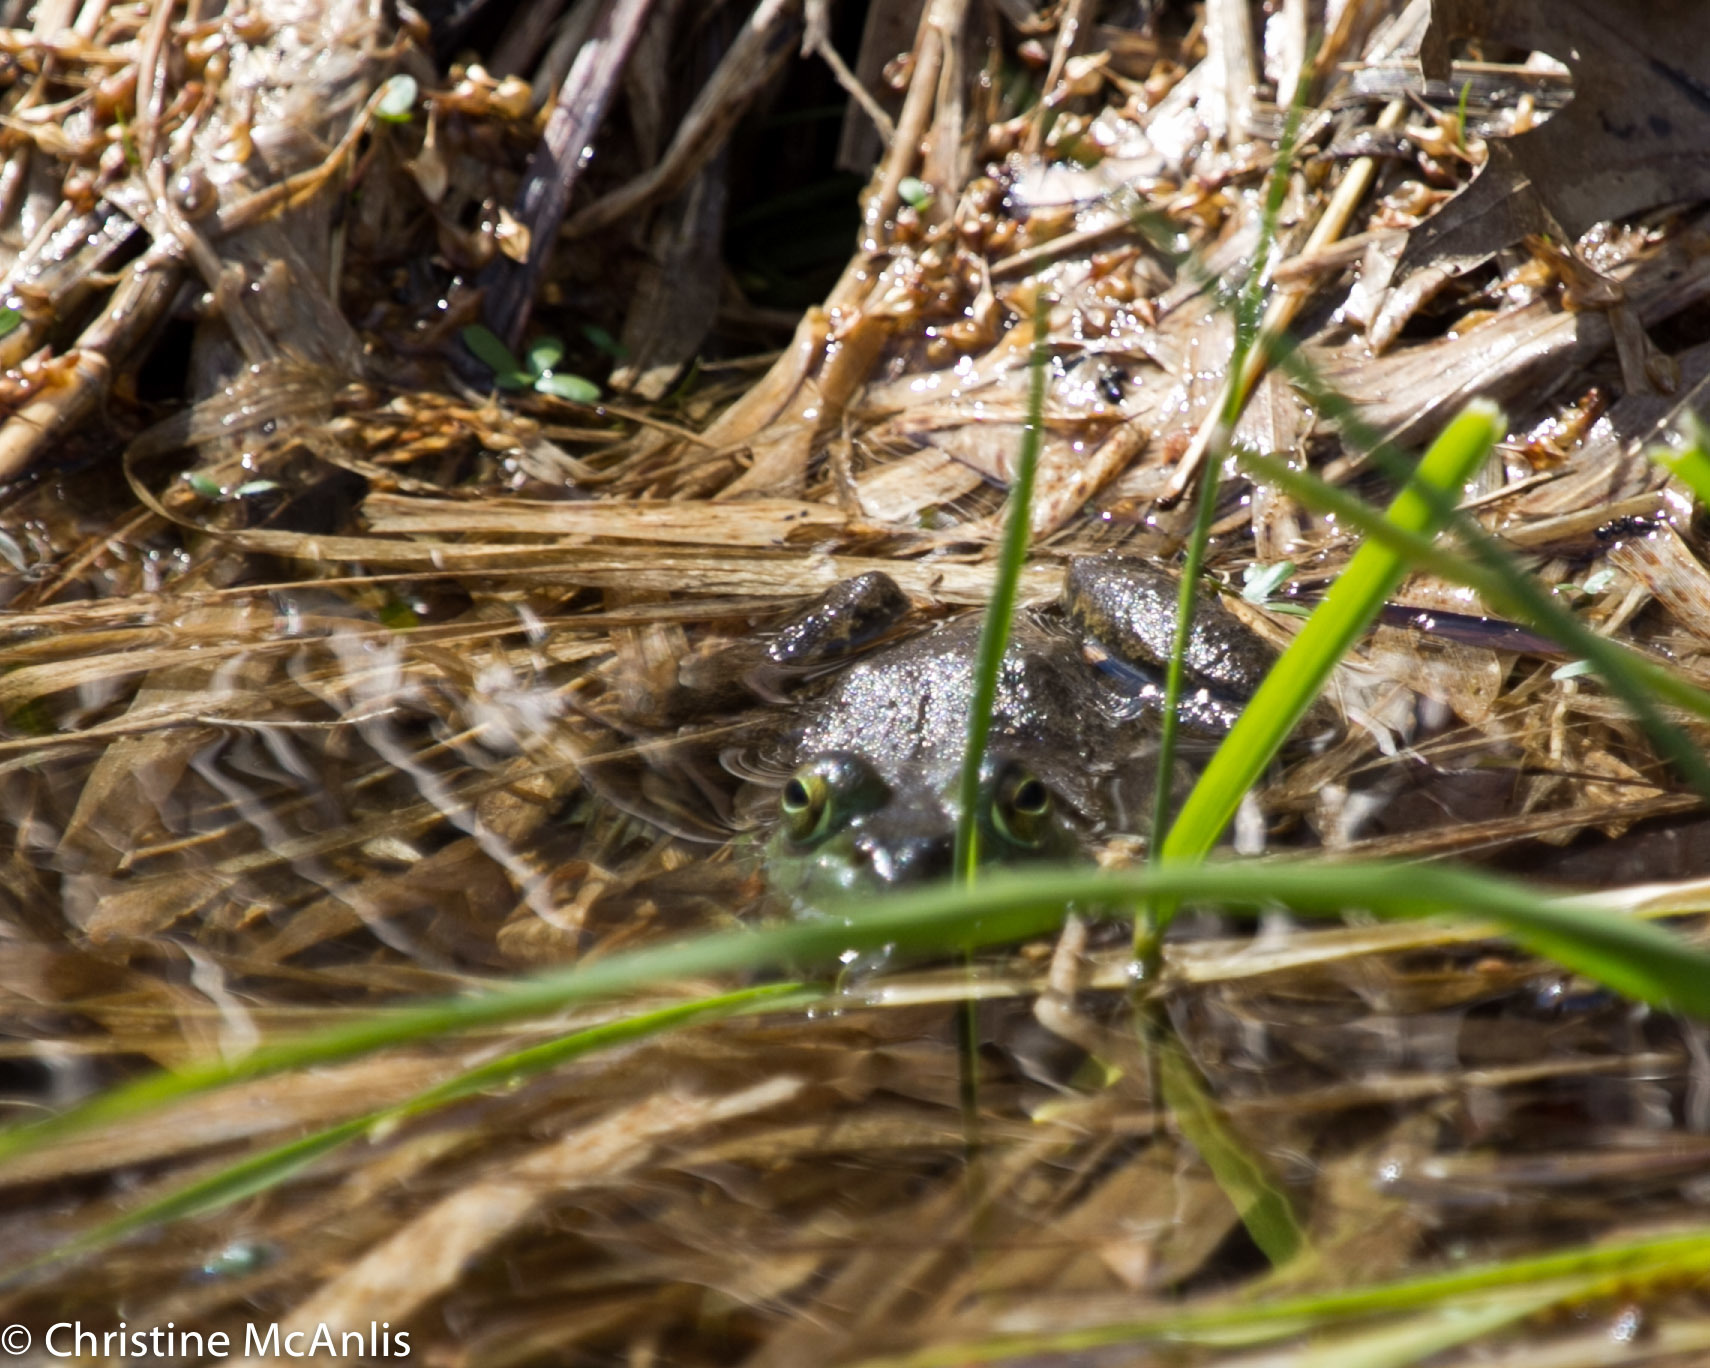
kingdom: Animalia
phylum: Chordata
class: Amphibia
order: Anura
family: Ranidae
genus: Lithobates
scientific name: Lithobates clamitans
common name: Green frog
